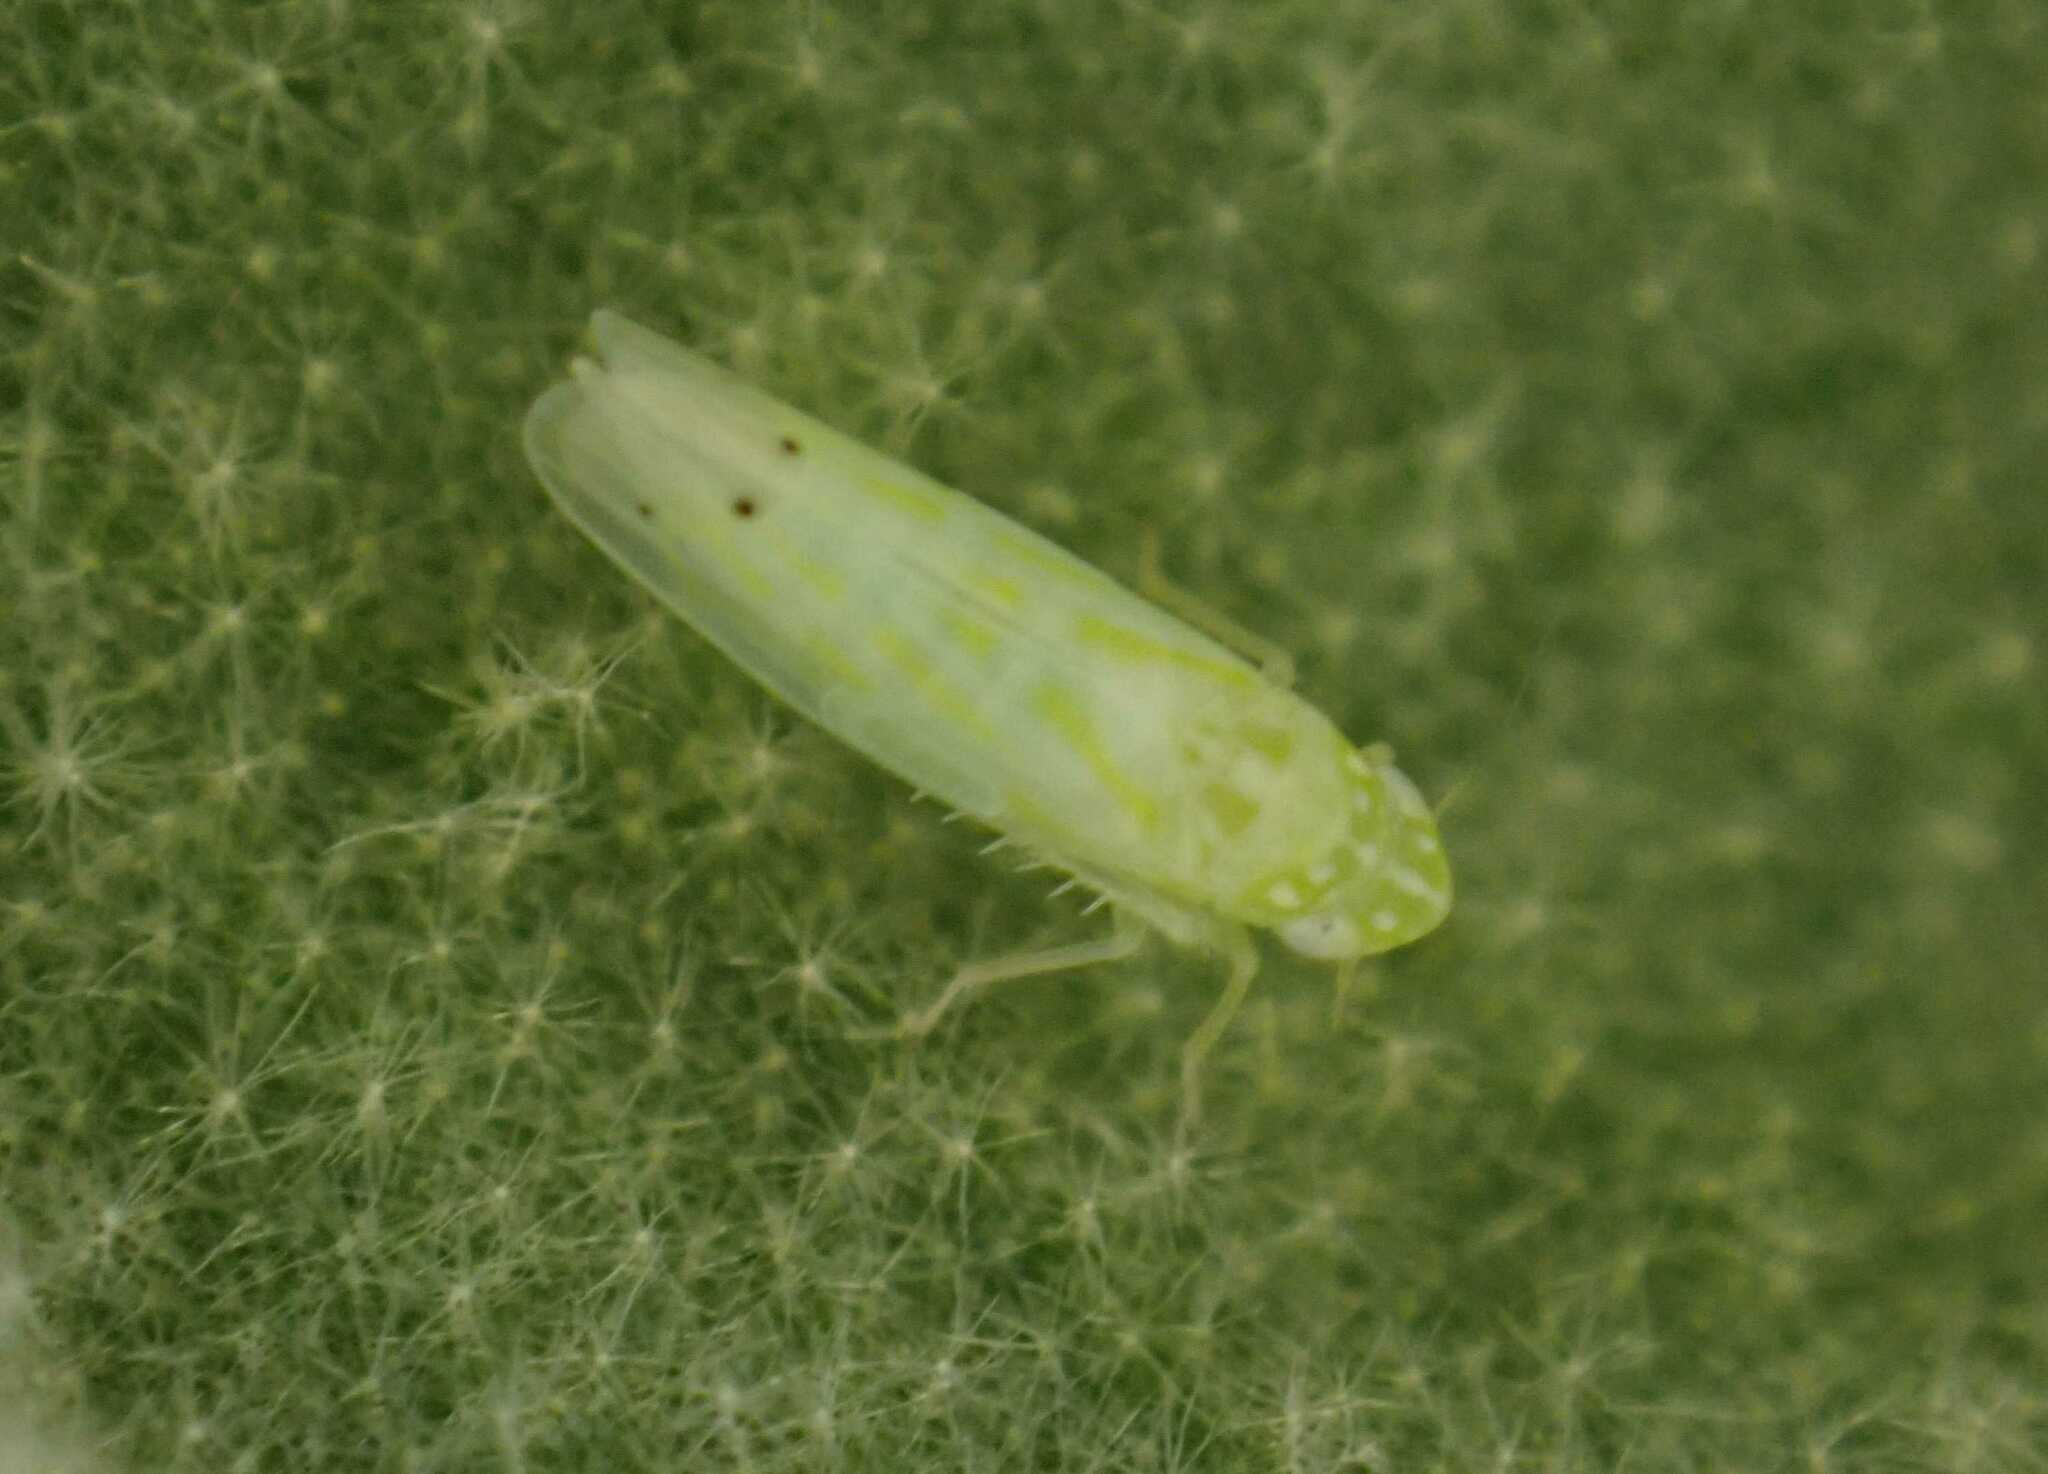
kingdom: Animalia
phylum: Arthropoda
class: Insecta
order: Hemiptera
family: Cicadellidae
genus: Micantulina
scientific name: Micantulina stigmatipennis
